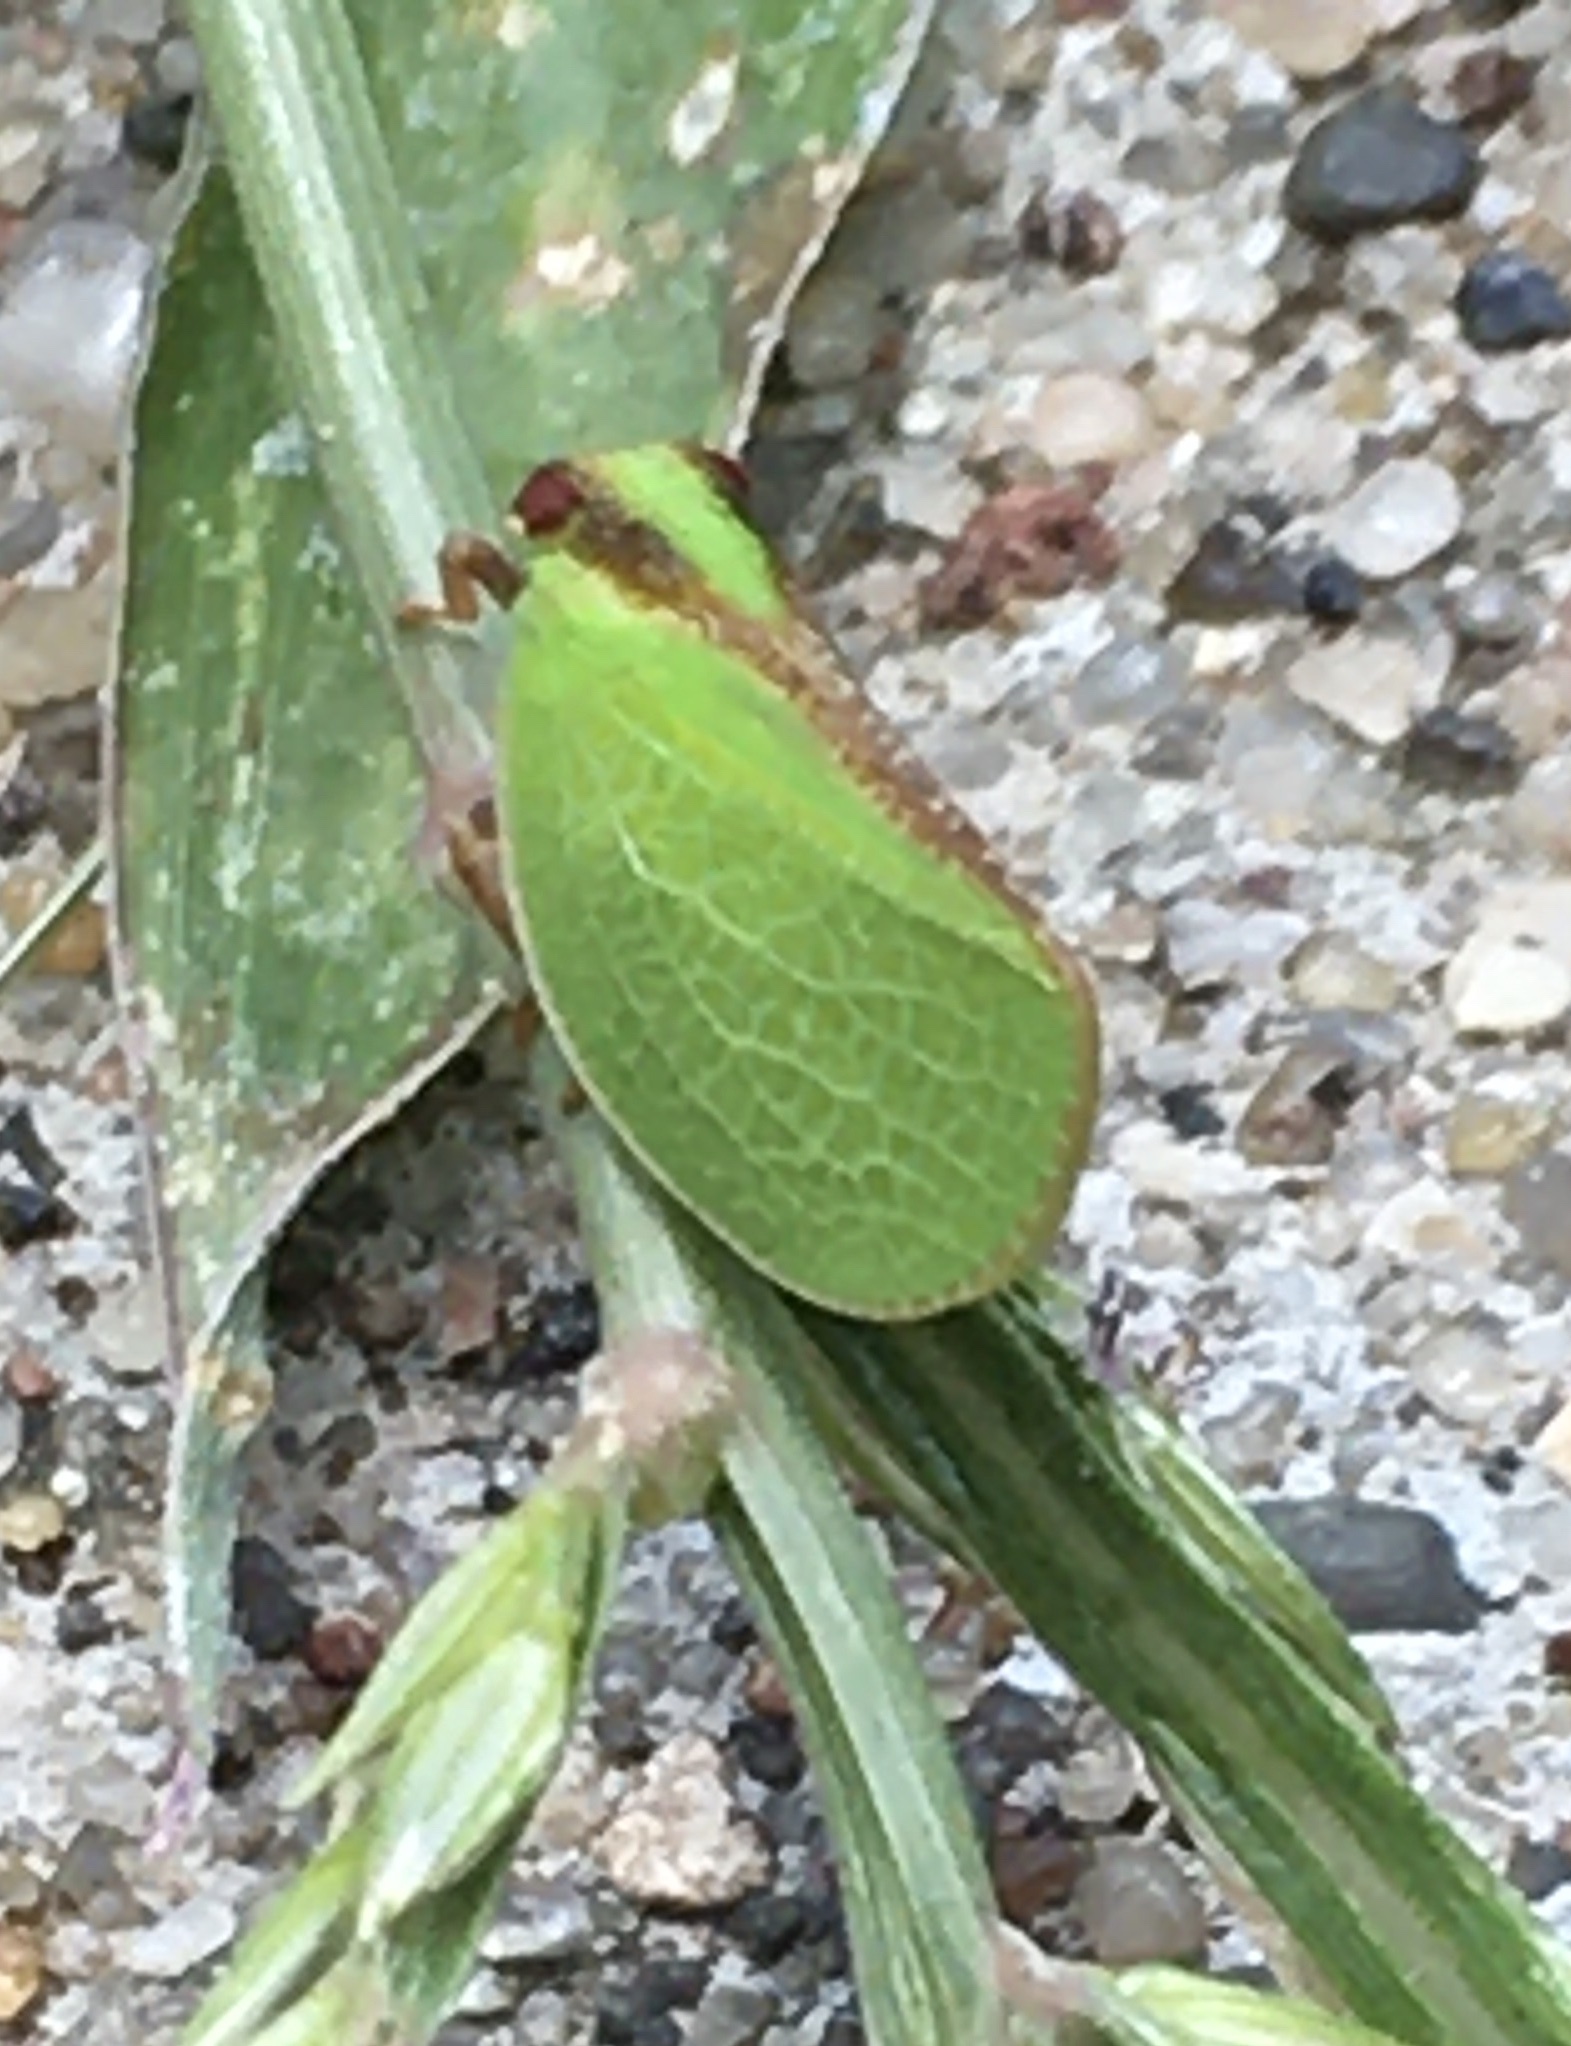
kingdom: Animalia
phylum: Arthropoda
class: Insecta
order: Hemiptera
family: Acanaloniidae
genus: Acanalonia
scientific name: Acanalonia bivittata
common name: Two-striped planthopper
